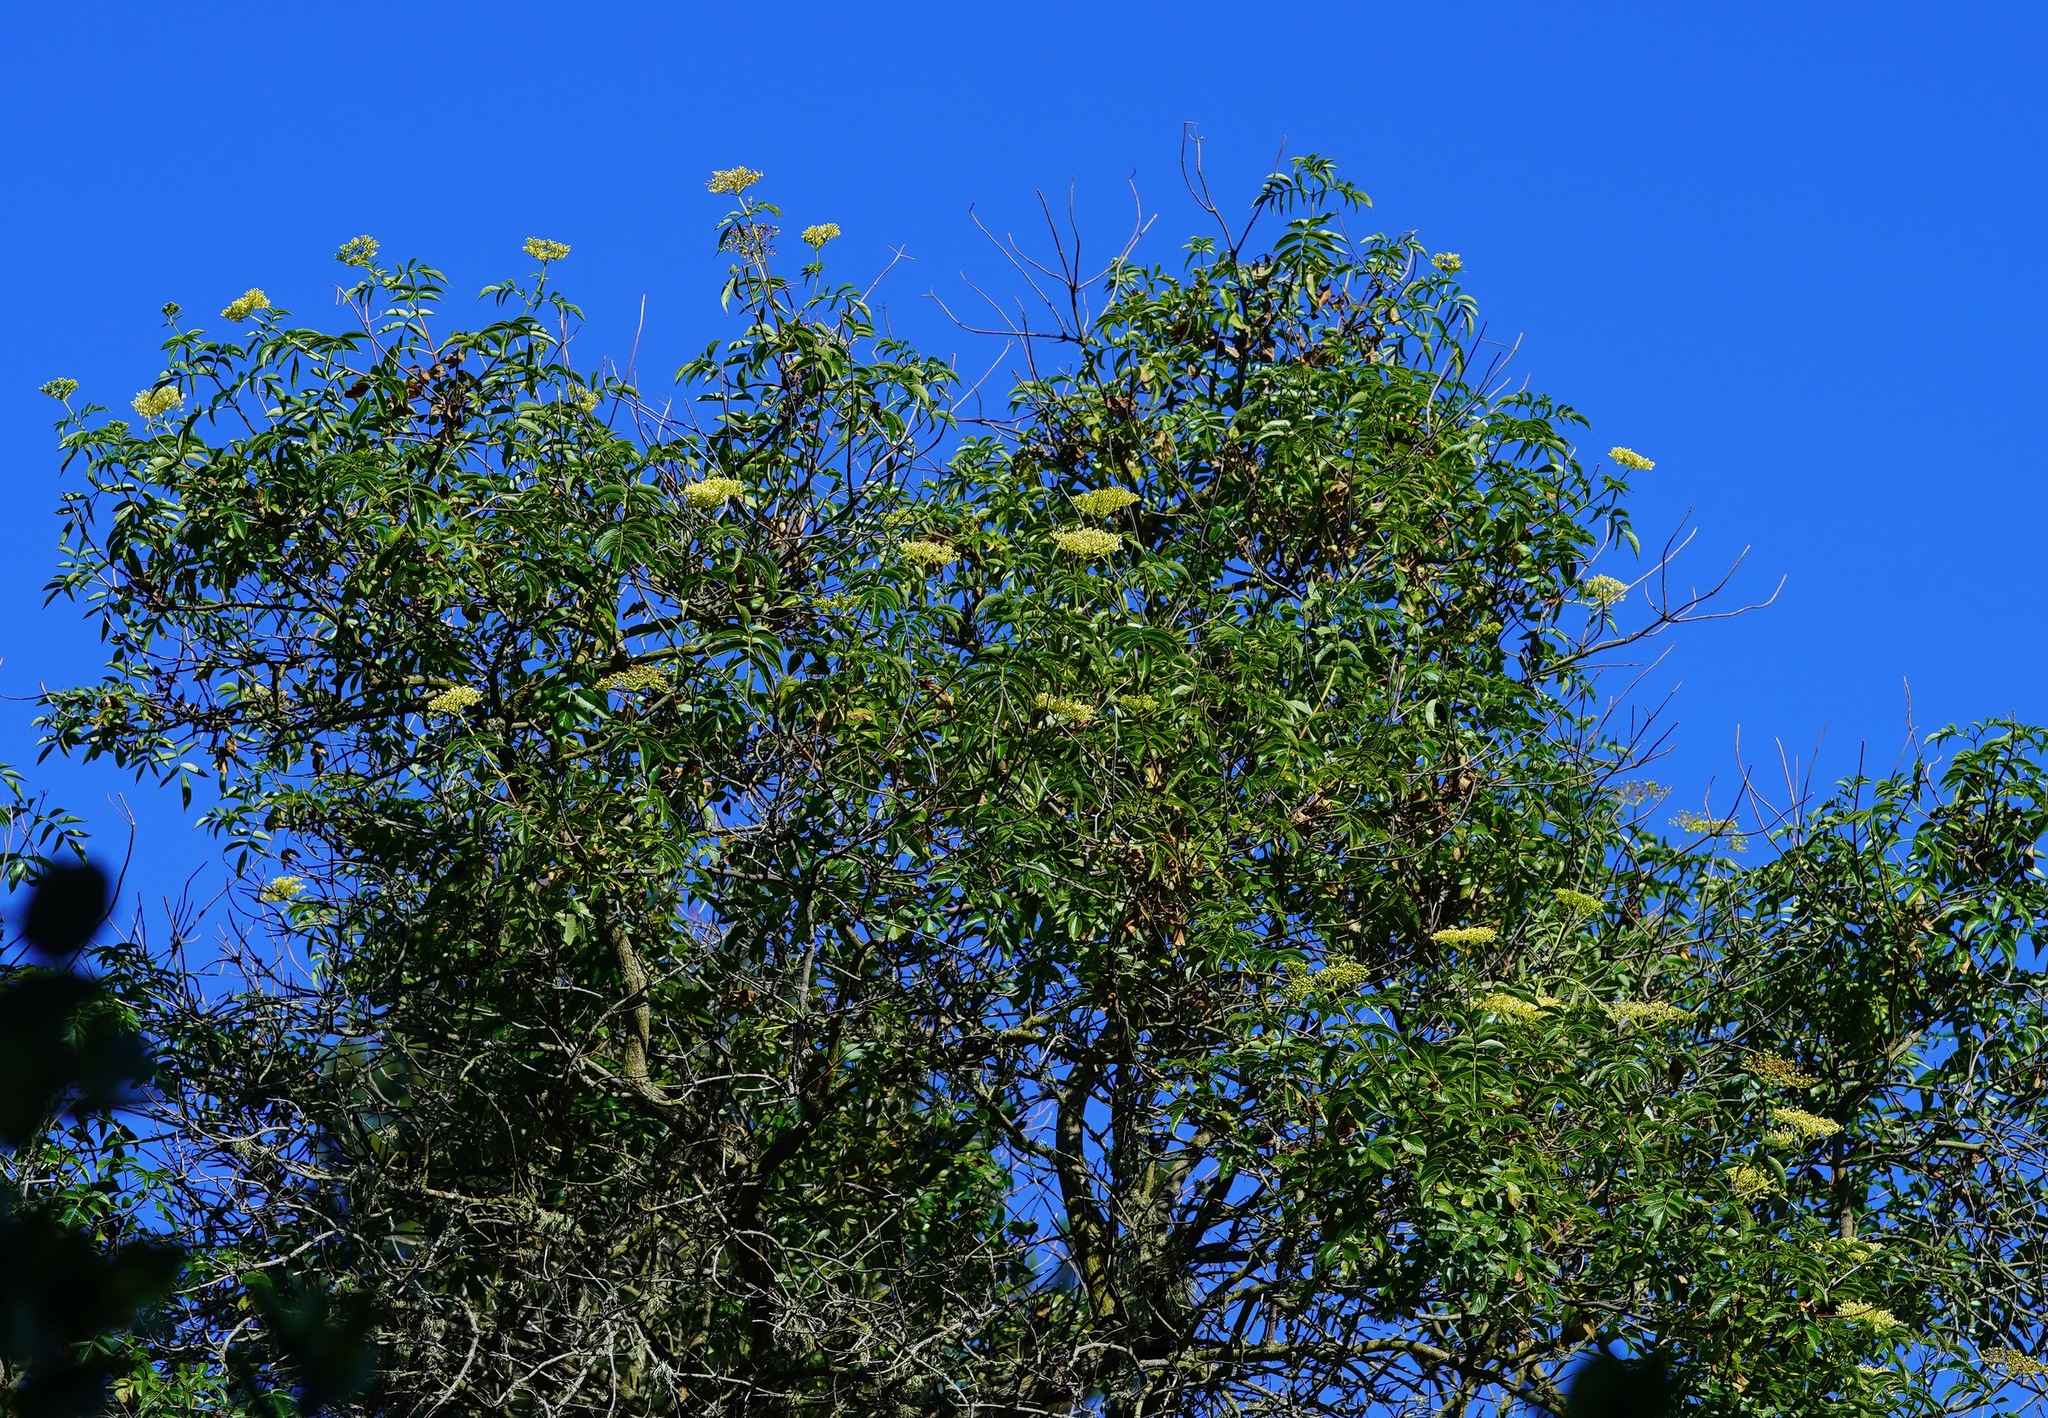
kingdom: Plantae
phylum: Tracheophyta
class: Magnoliopsida
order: Dipsacales
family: Viburnaceae
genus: Sambucus
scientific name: Sambucus cerulea
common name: Blue elder
